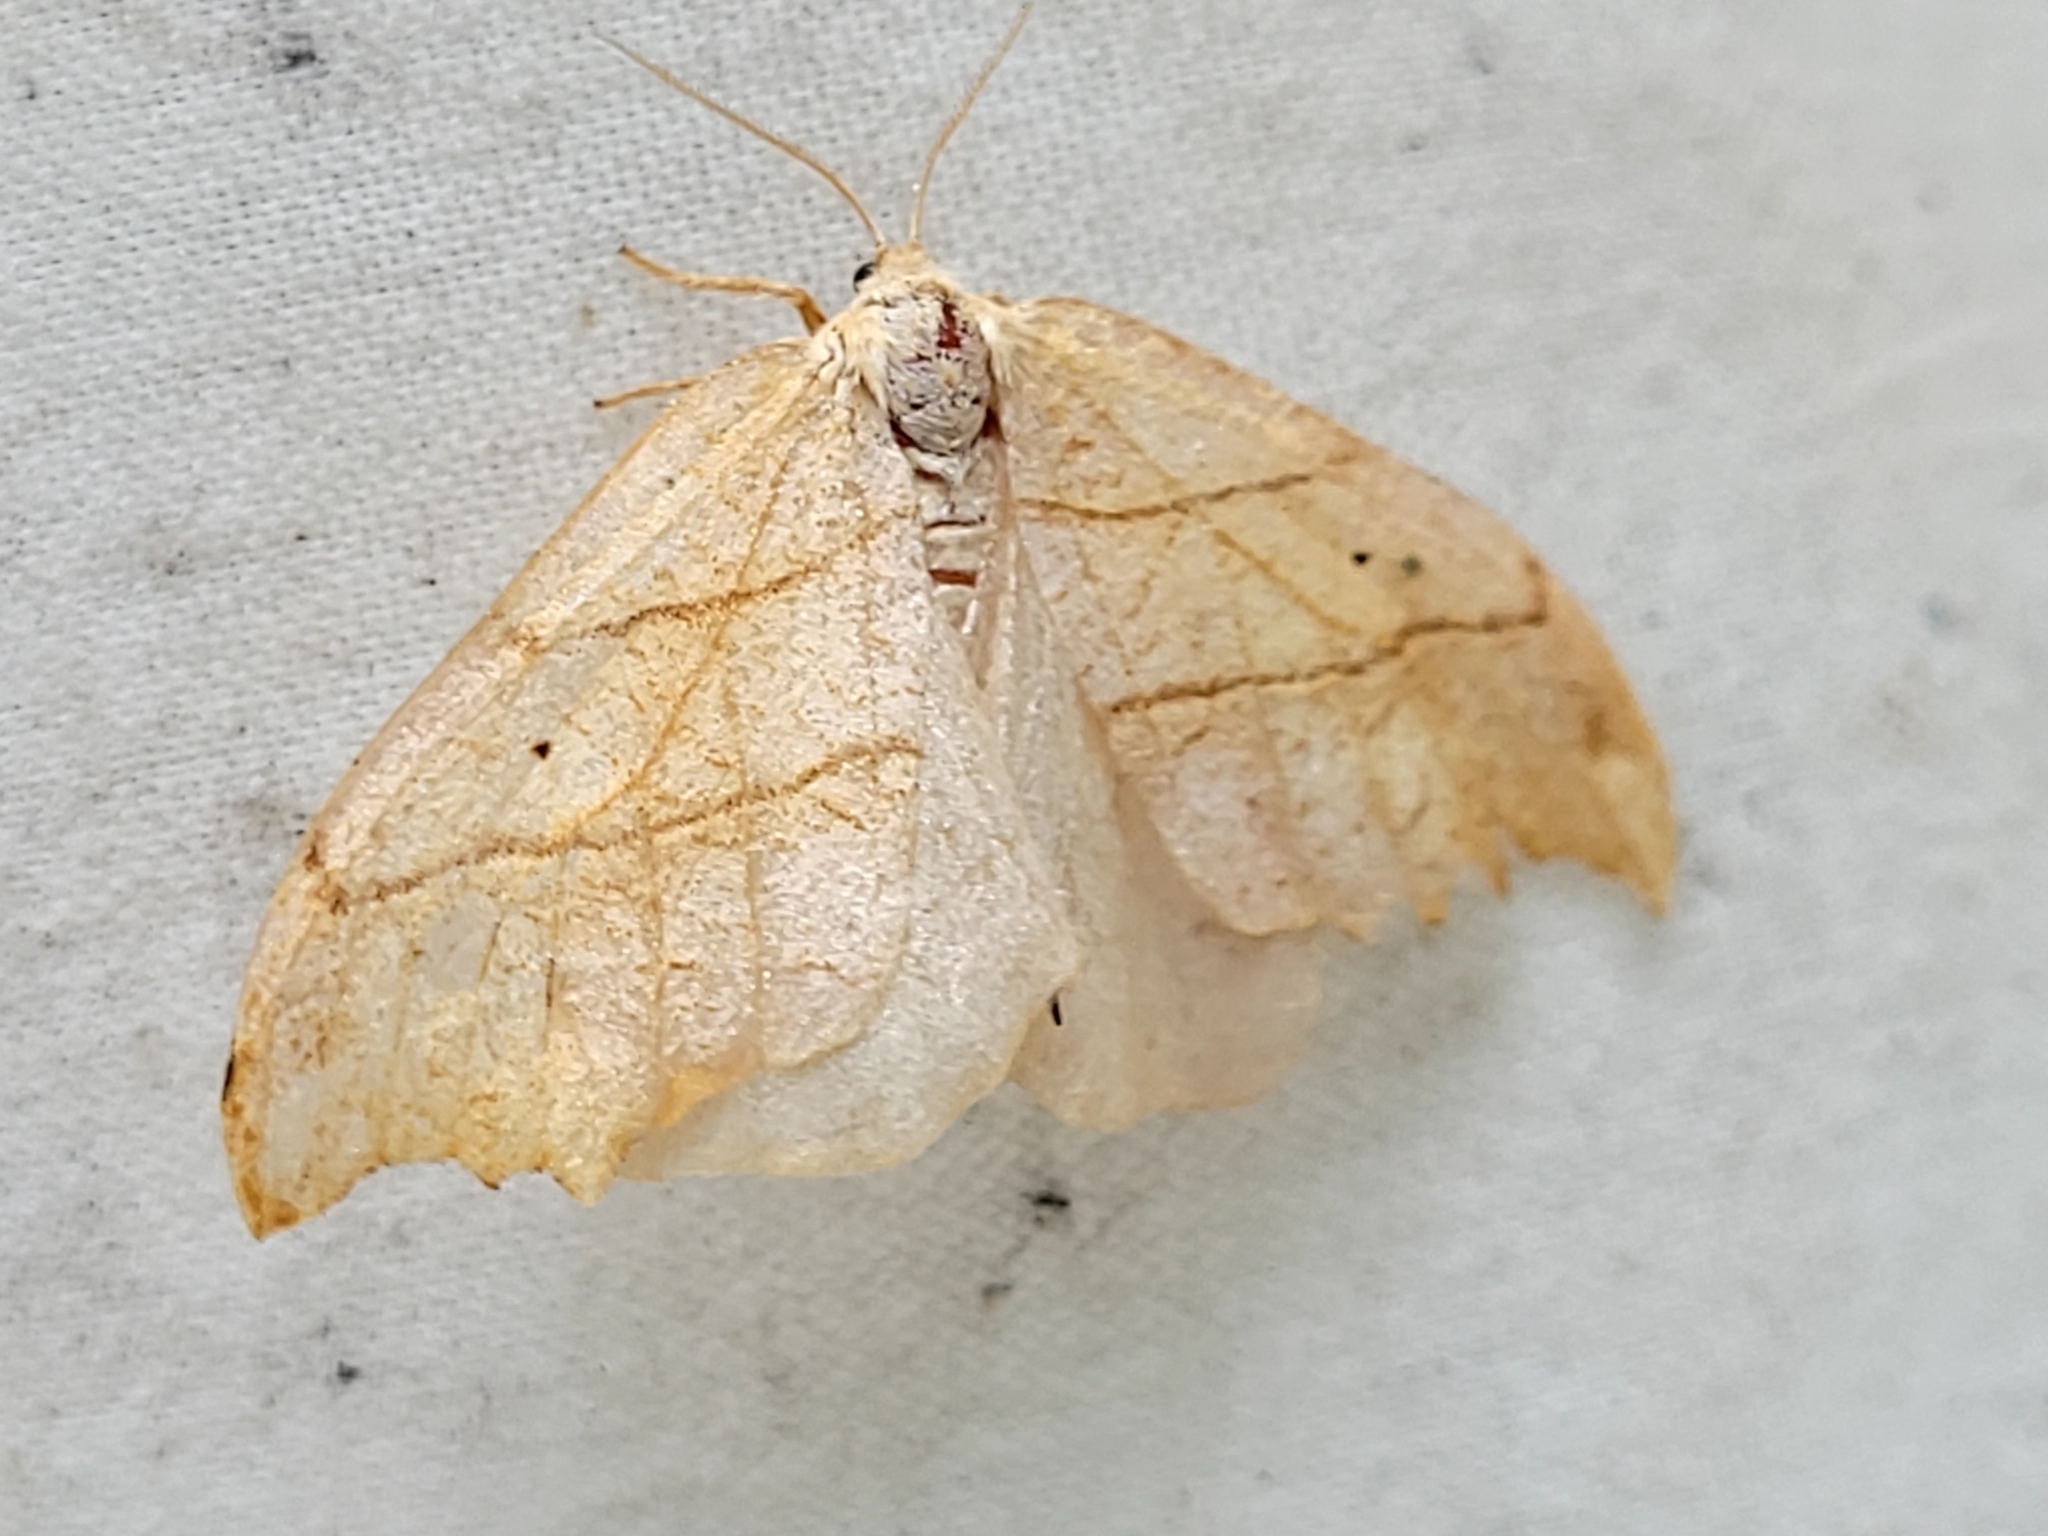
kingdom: Animalia
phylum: Arthropoda
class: Insecta
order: Lepidoptera
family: Drepanidae
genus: Falcaria
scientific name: Falcaria bilineata
